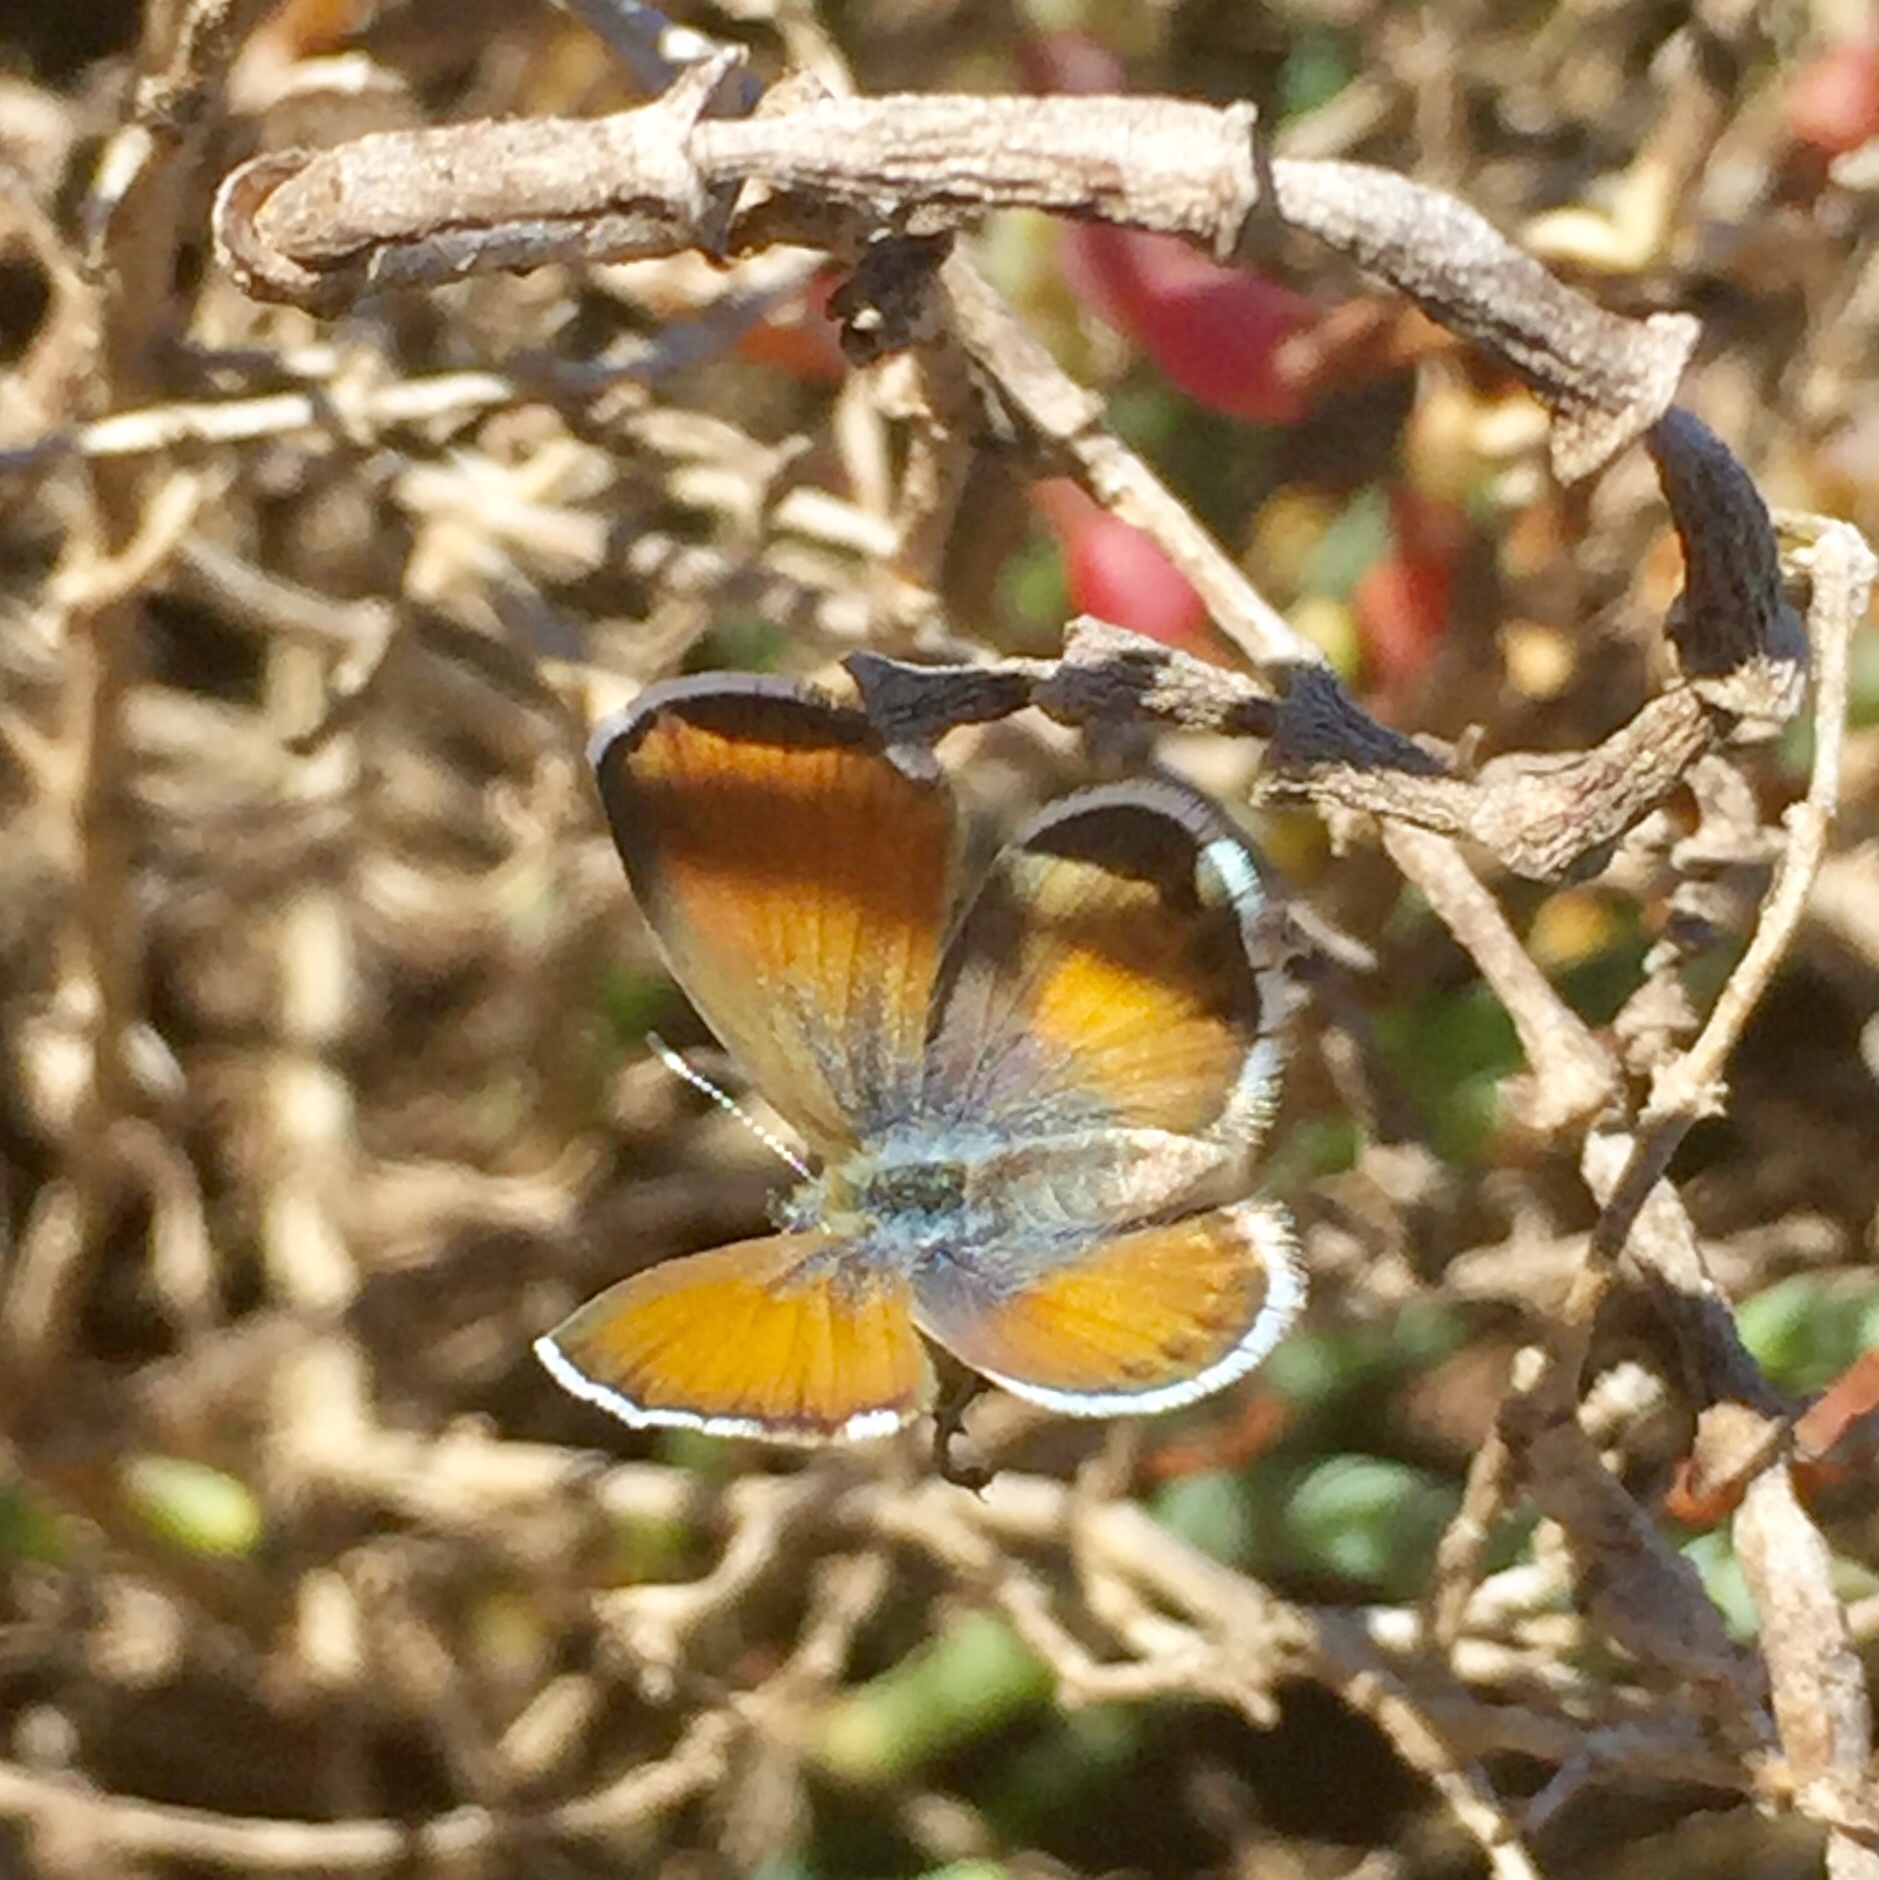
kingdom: Animalia
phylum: Arthropoda
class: Insecta
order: Lepidoptera
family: Lycaenidae
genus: Brephidium
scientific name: Brephidium exilis
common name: Pygmy blue
